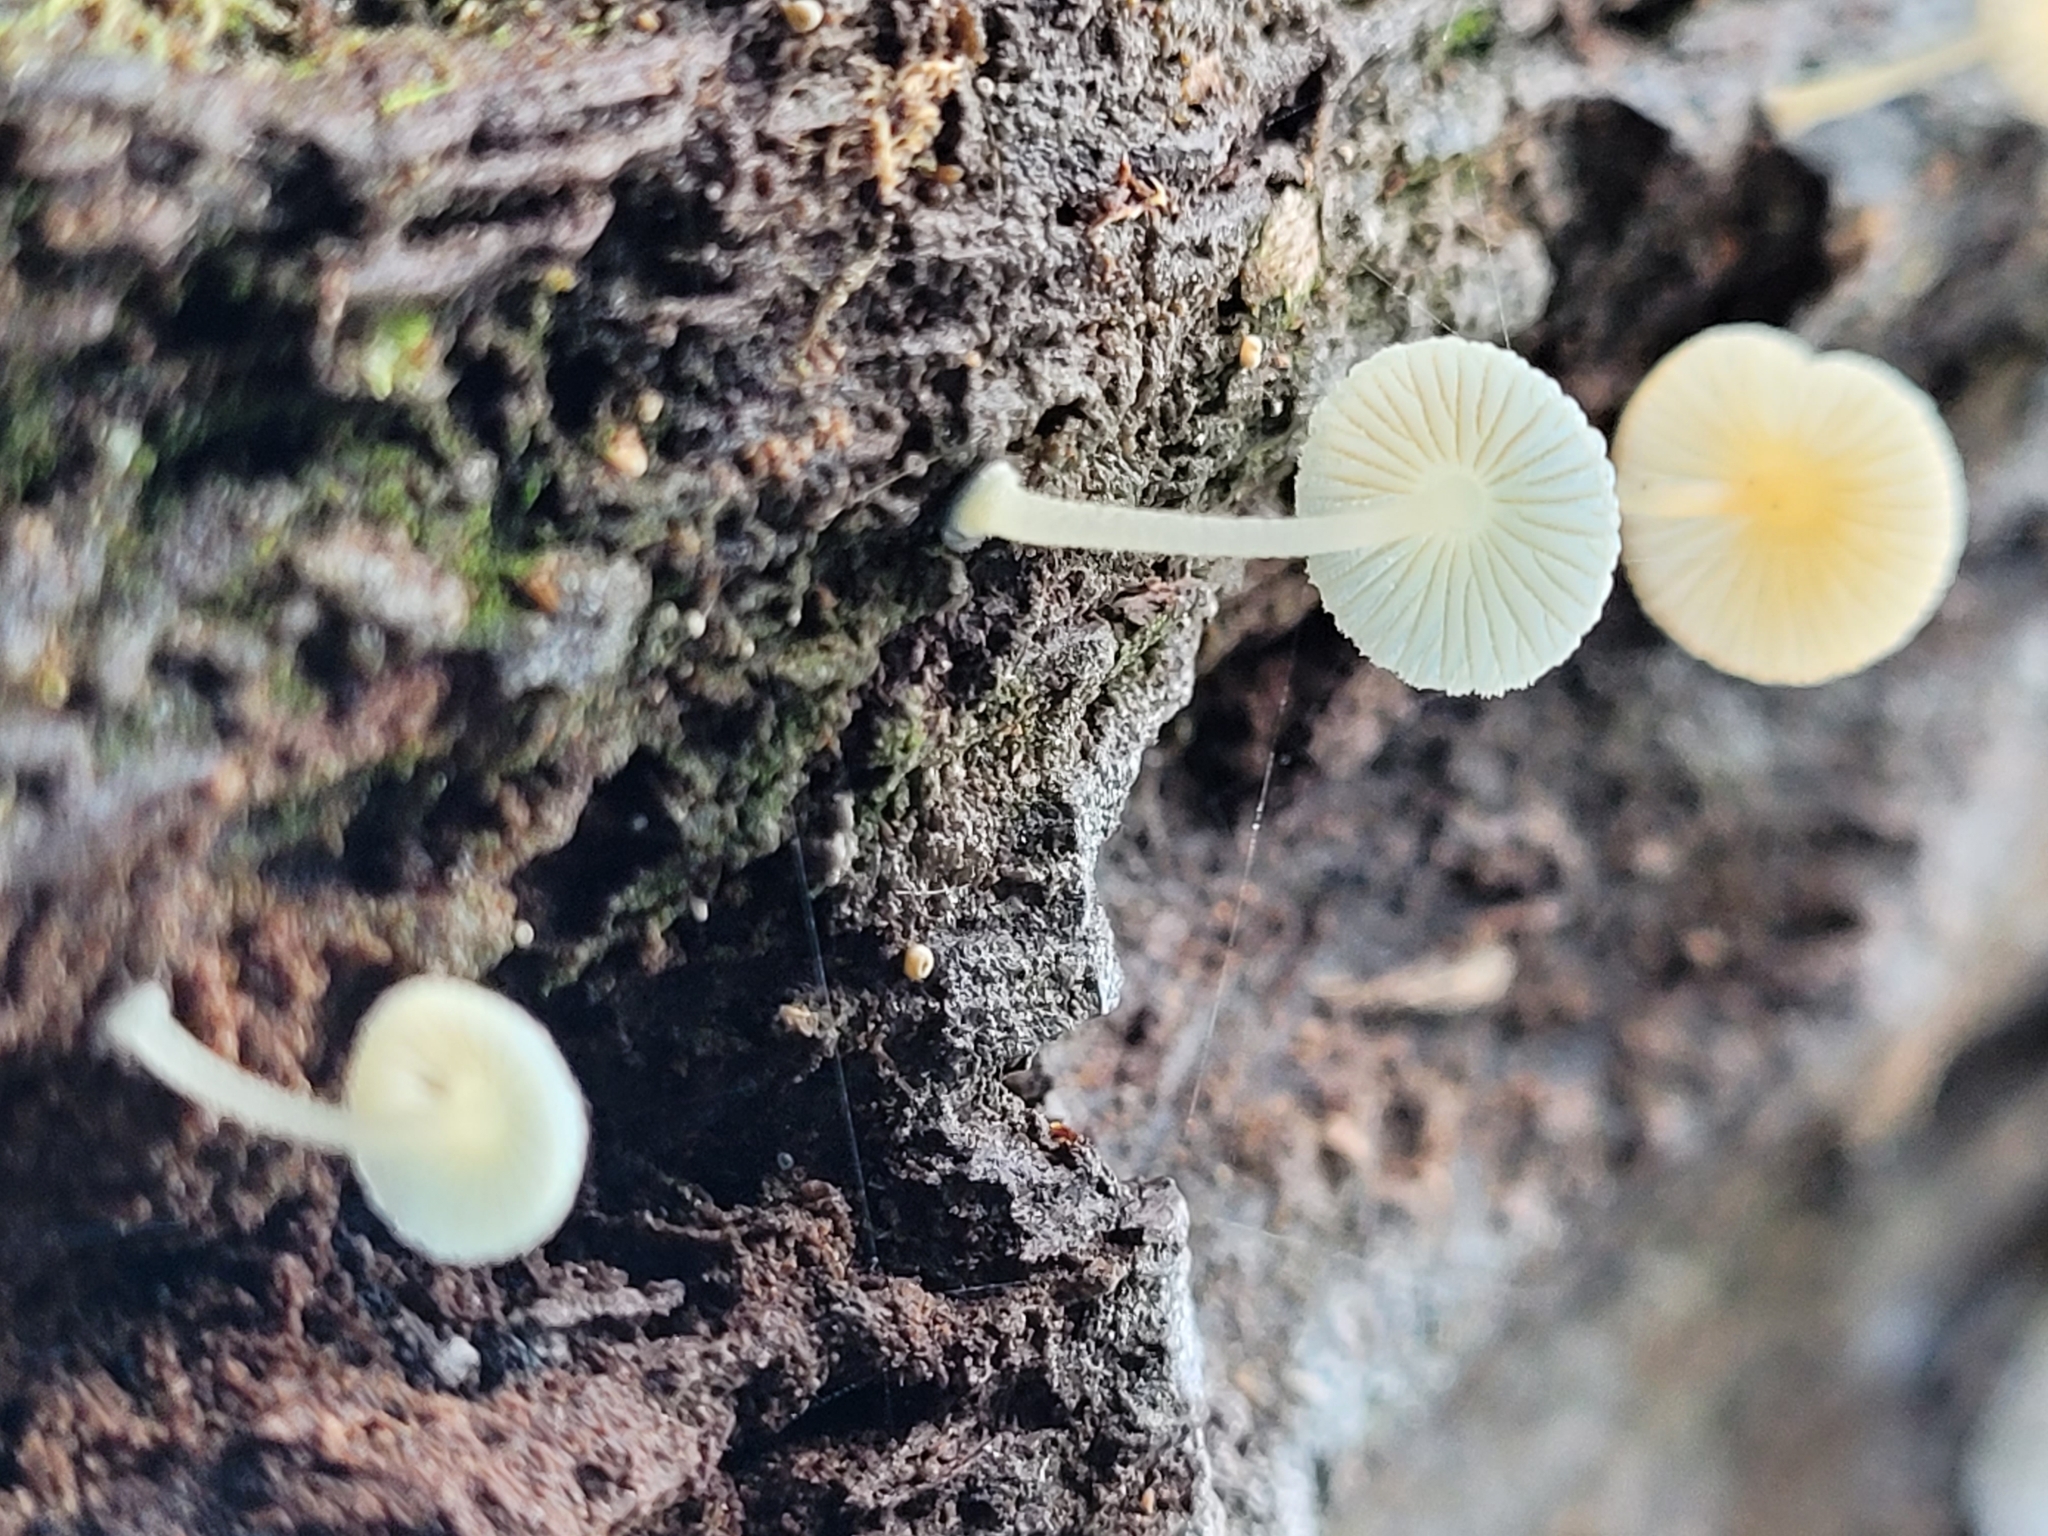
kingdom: Fungi
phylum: Basidiomycota
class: Agaricomycetes
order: Agaricales
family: Mycenaceae
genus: Mycena
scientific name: Mycena interrupta
